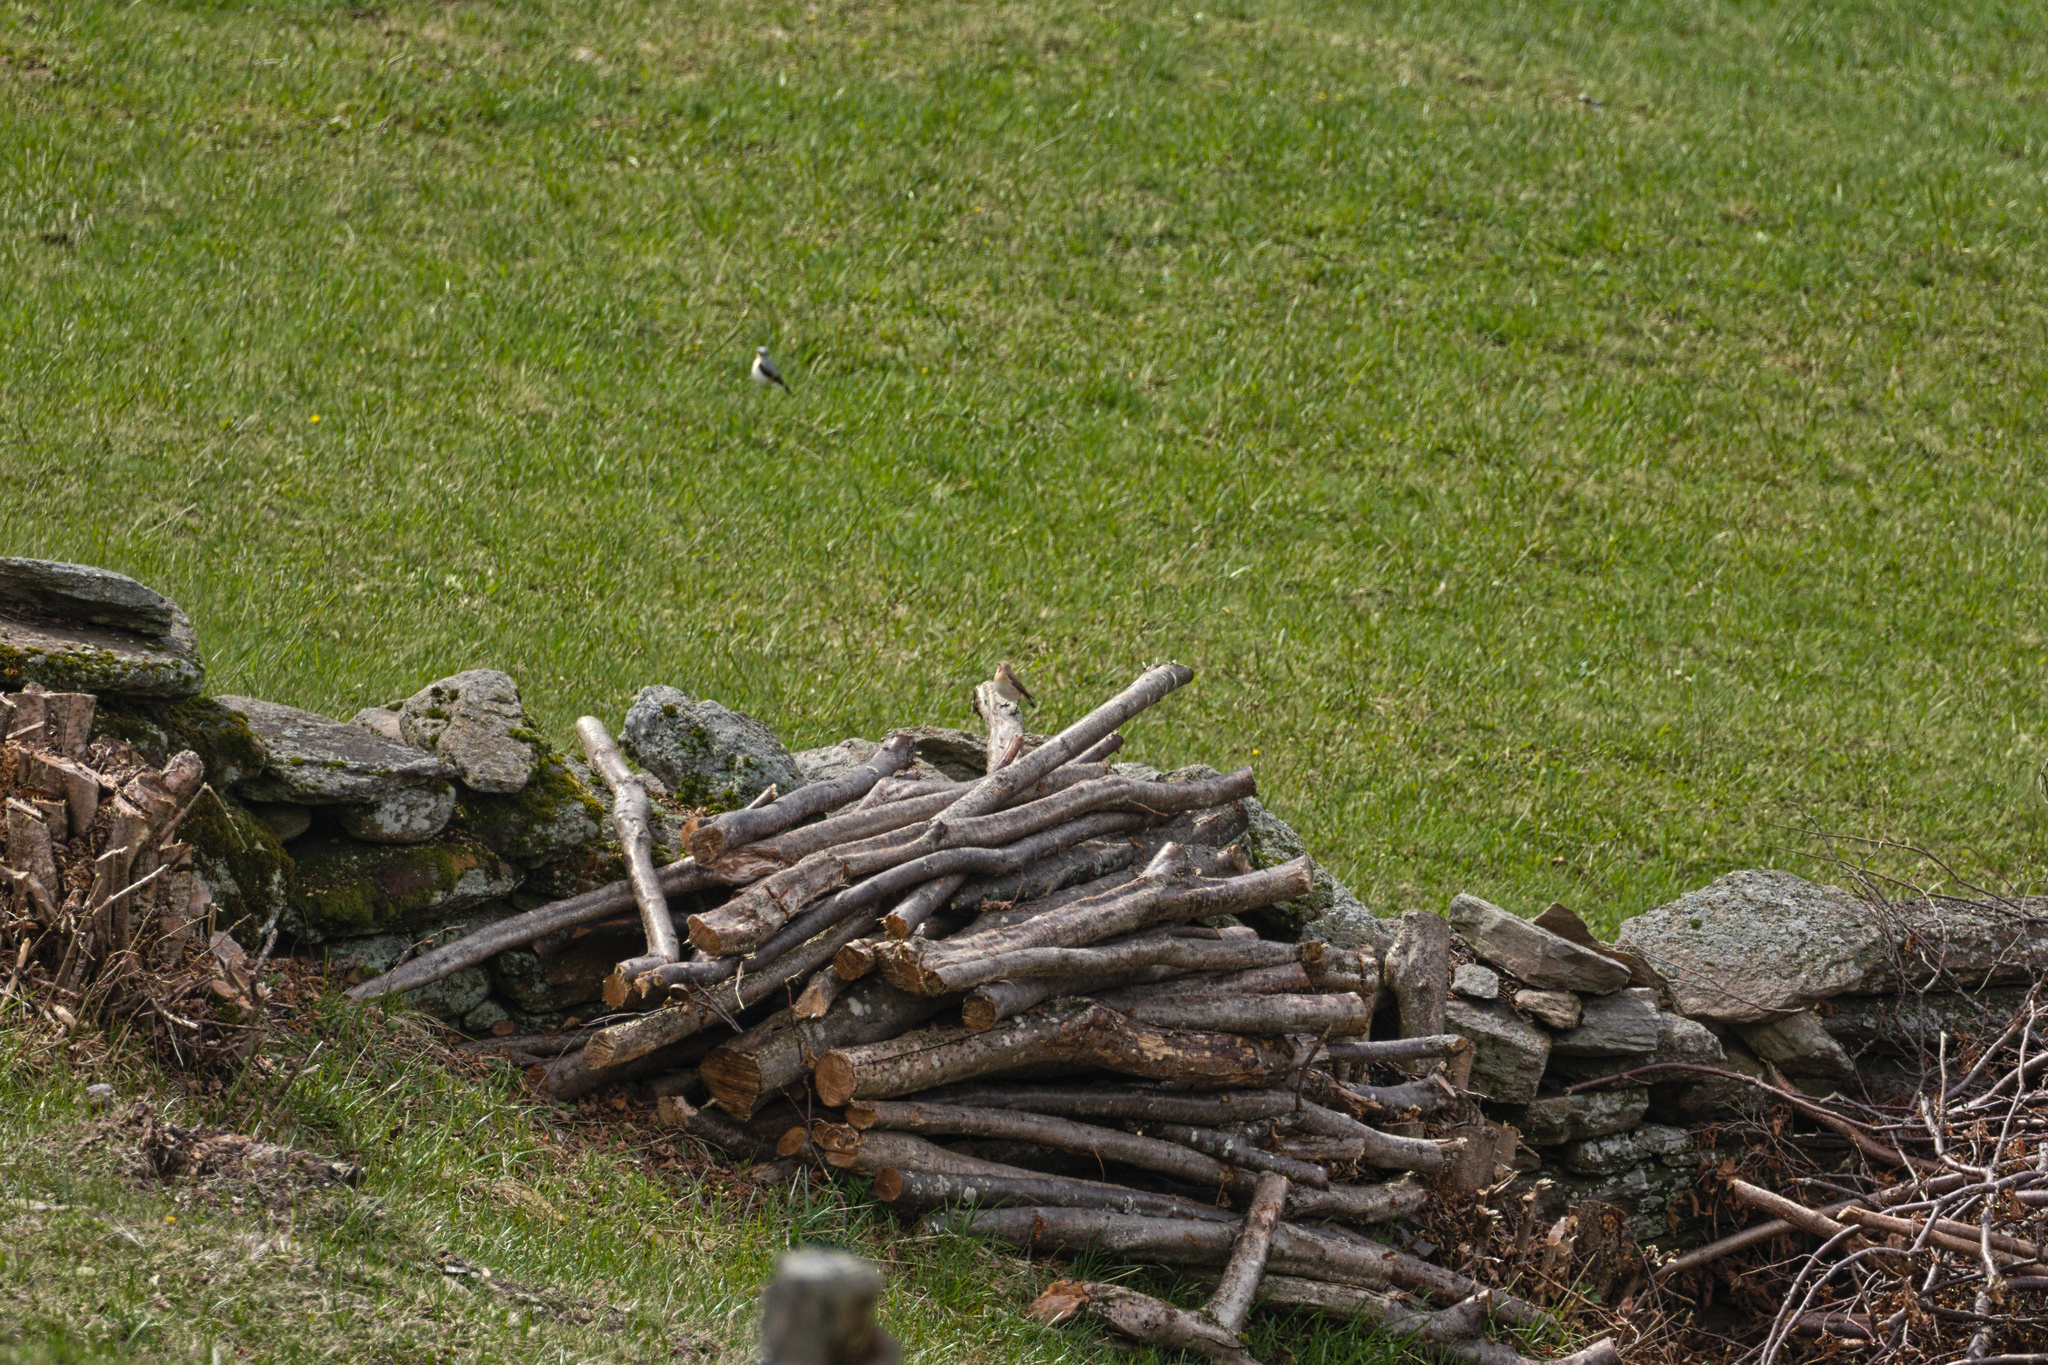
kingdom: Animalia
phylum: Chordata
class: Aves
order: Passeriformes
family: Muscicapidae
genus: Oenanthe
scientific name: Oenanthe oenanthe
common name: Northern wheatear
